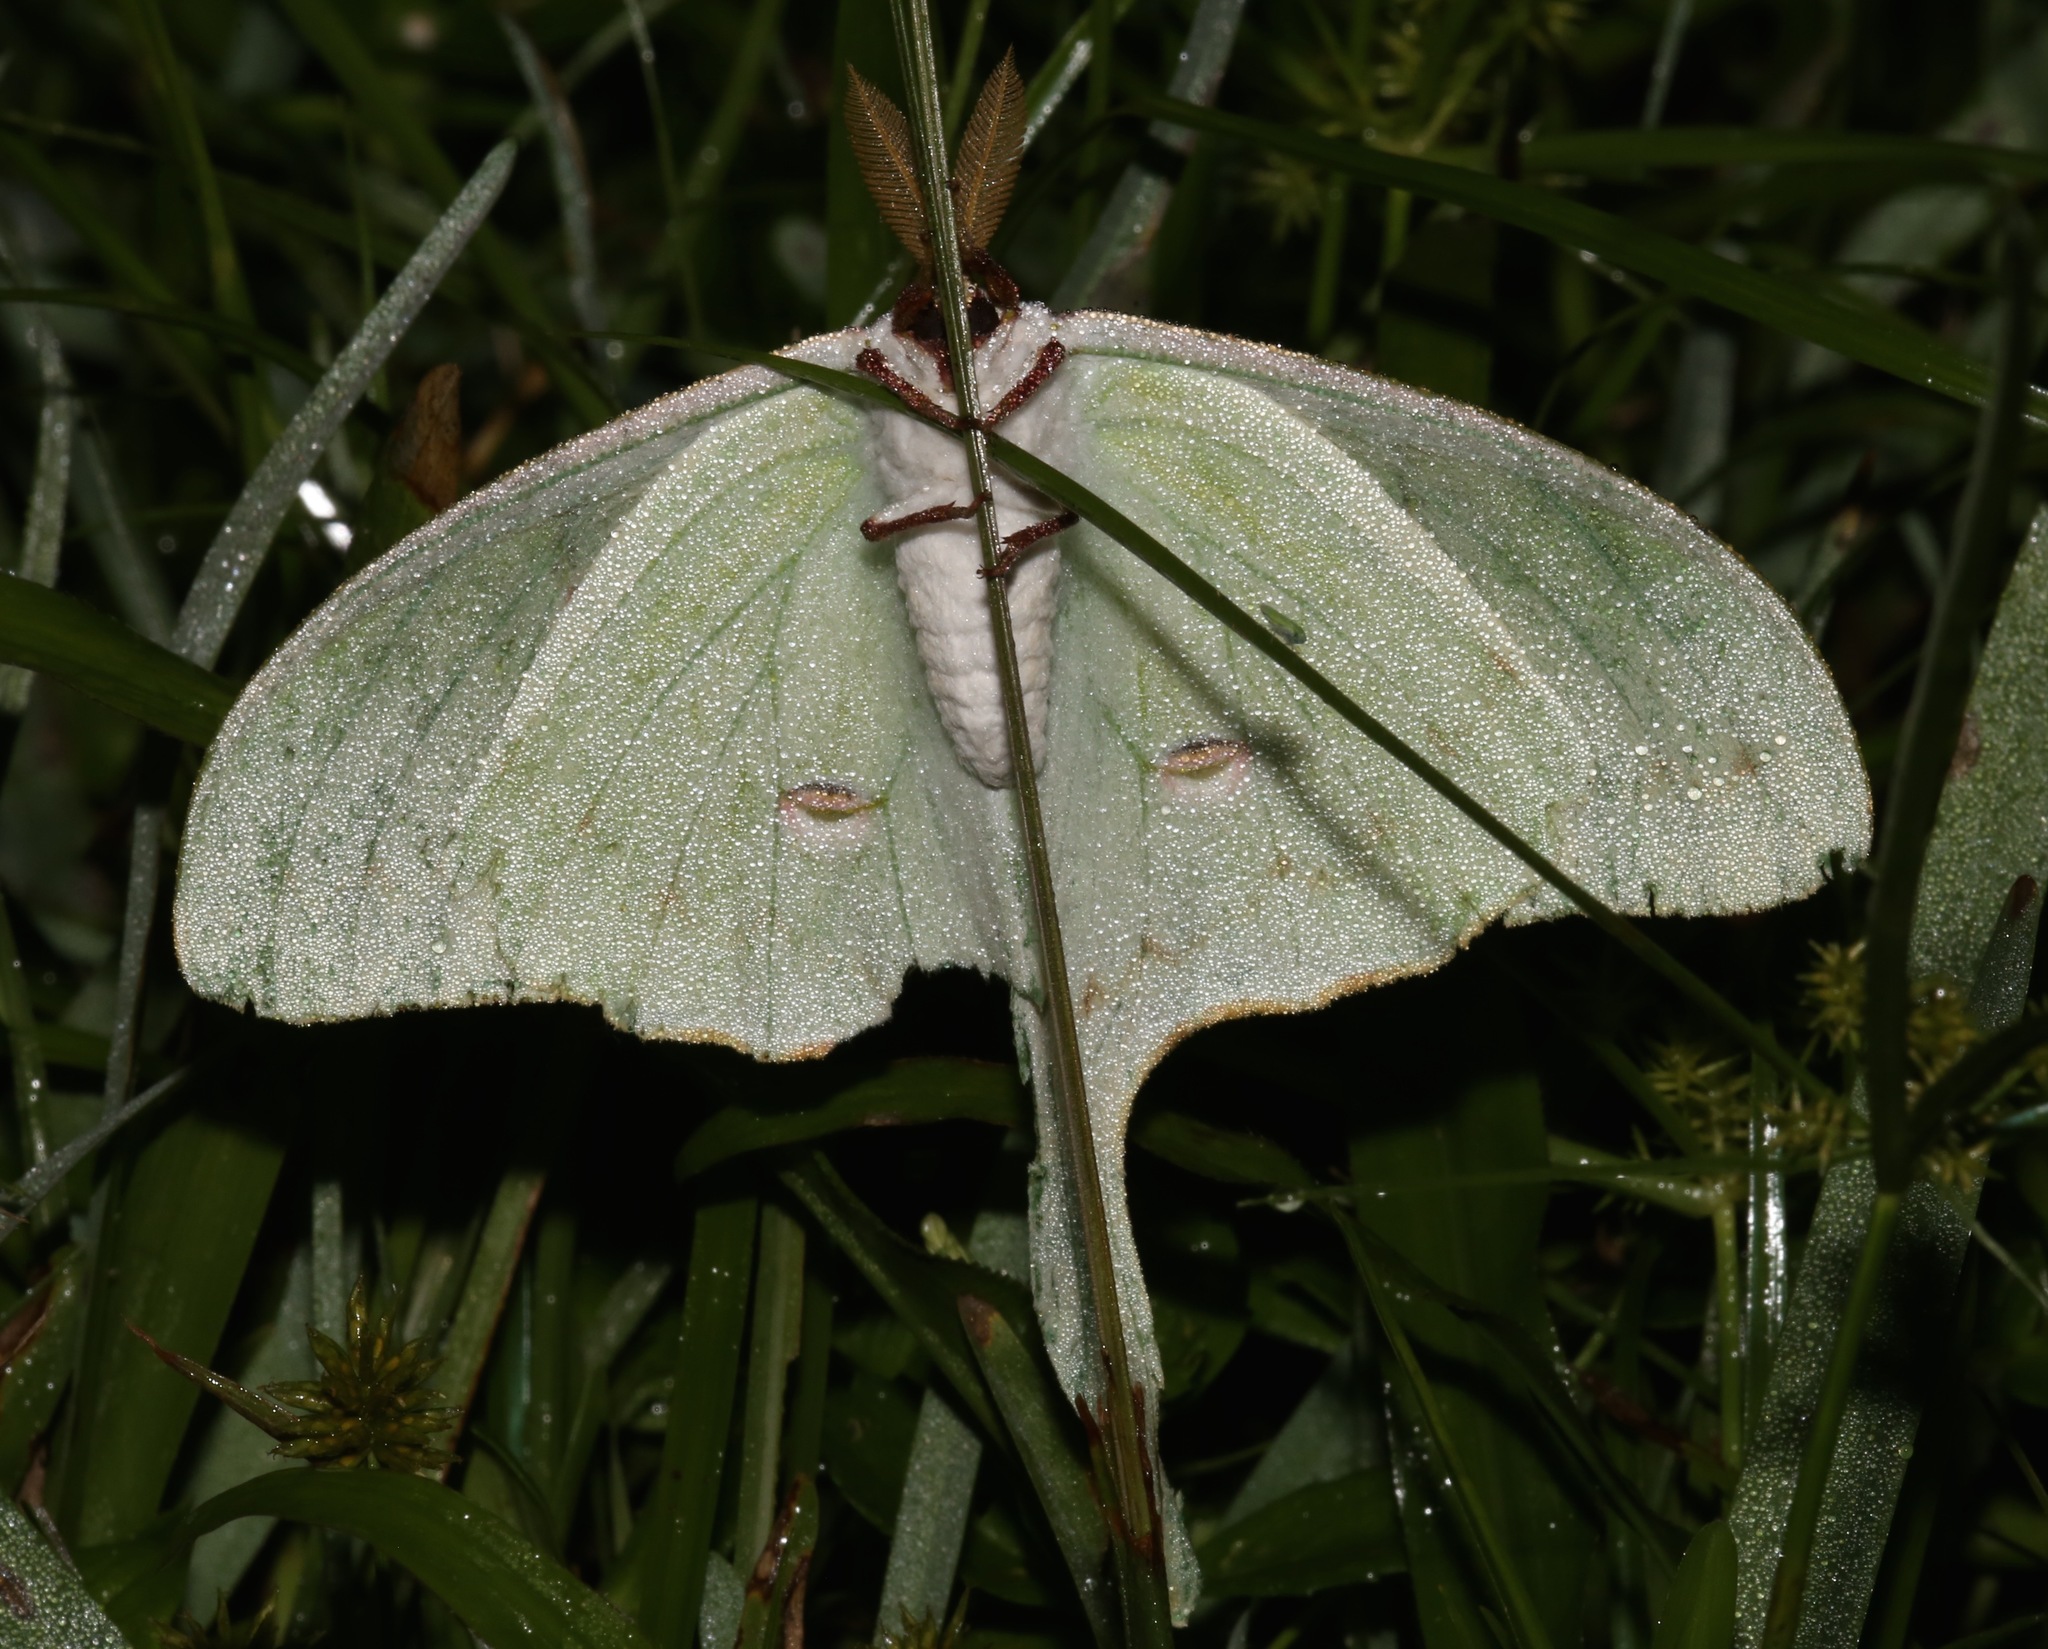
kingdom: Animalia
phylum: Arthropoda
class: Insecta
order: Lepidoptera
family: Saturniidae
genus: Actias
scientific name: Actias luna
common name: Luna moth
